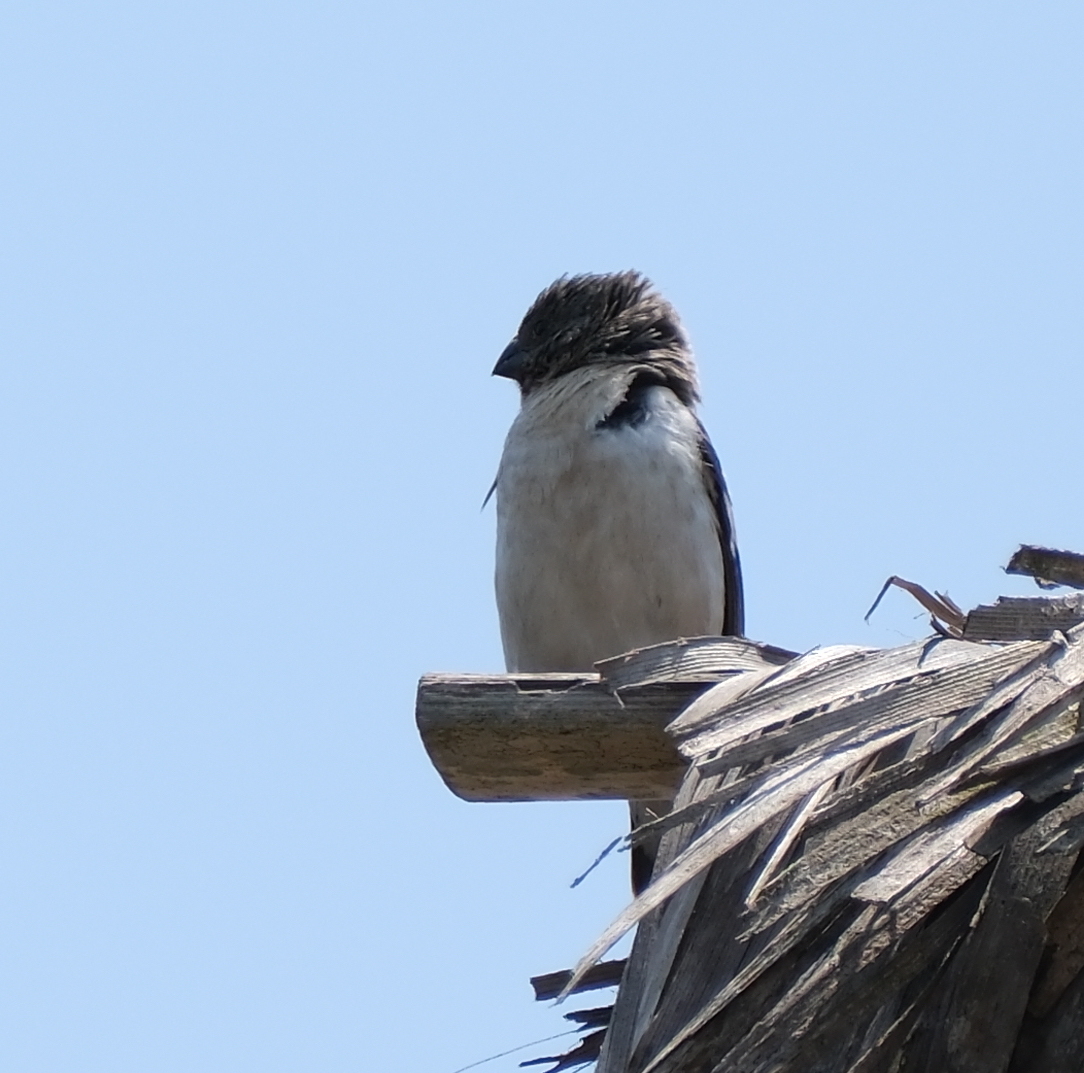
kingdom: Animalia
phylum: Chordata
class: Aves
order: Passeriformes
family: Thraupidae
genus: Sporophila
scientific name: Sporophila telasco
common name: Chestnut-throated seedeater
